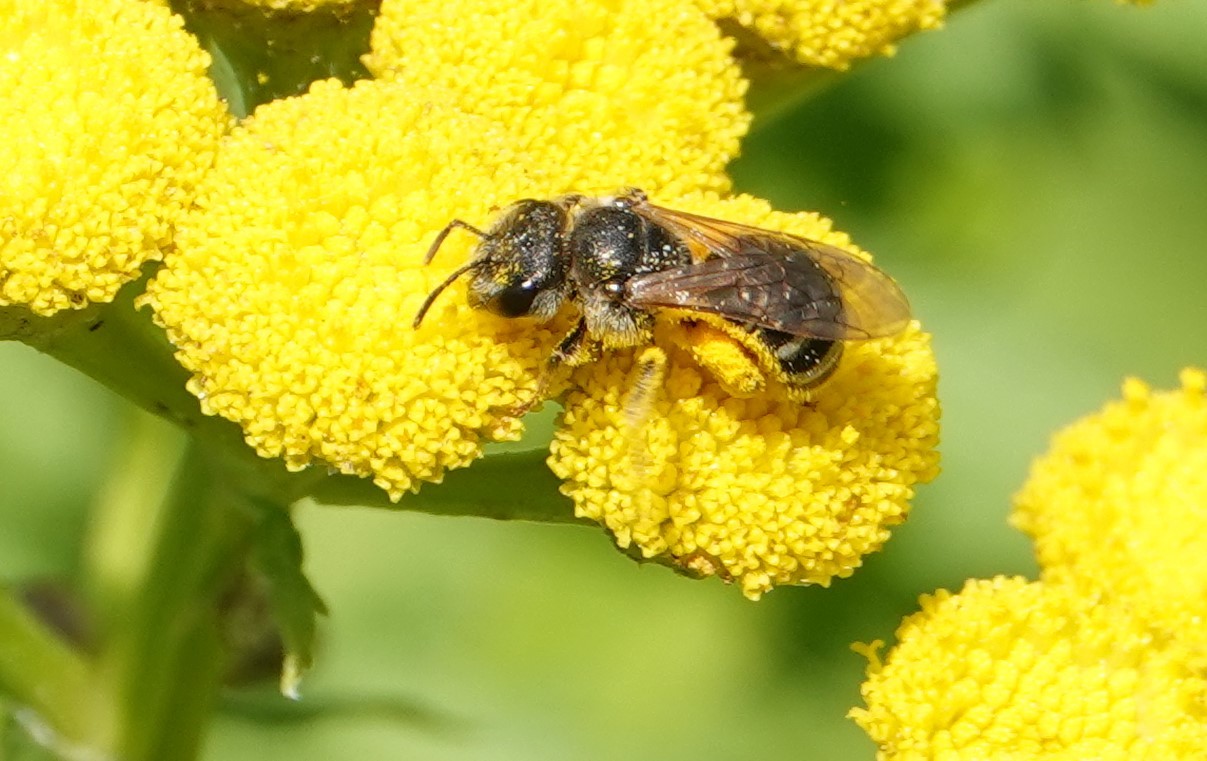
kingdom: Animalia
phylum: Arthropoda
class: Insecta
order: Hymenoptera
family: Halictidae
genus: Halictus
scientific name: Halictus ligatus
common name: Ligated furrow bee
